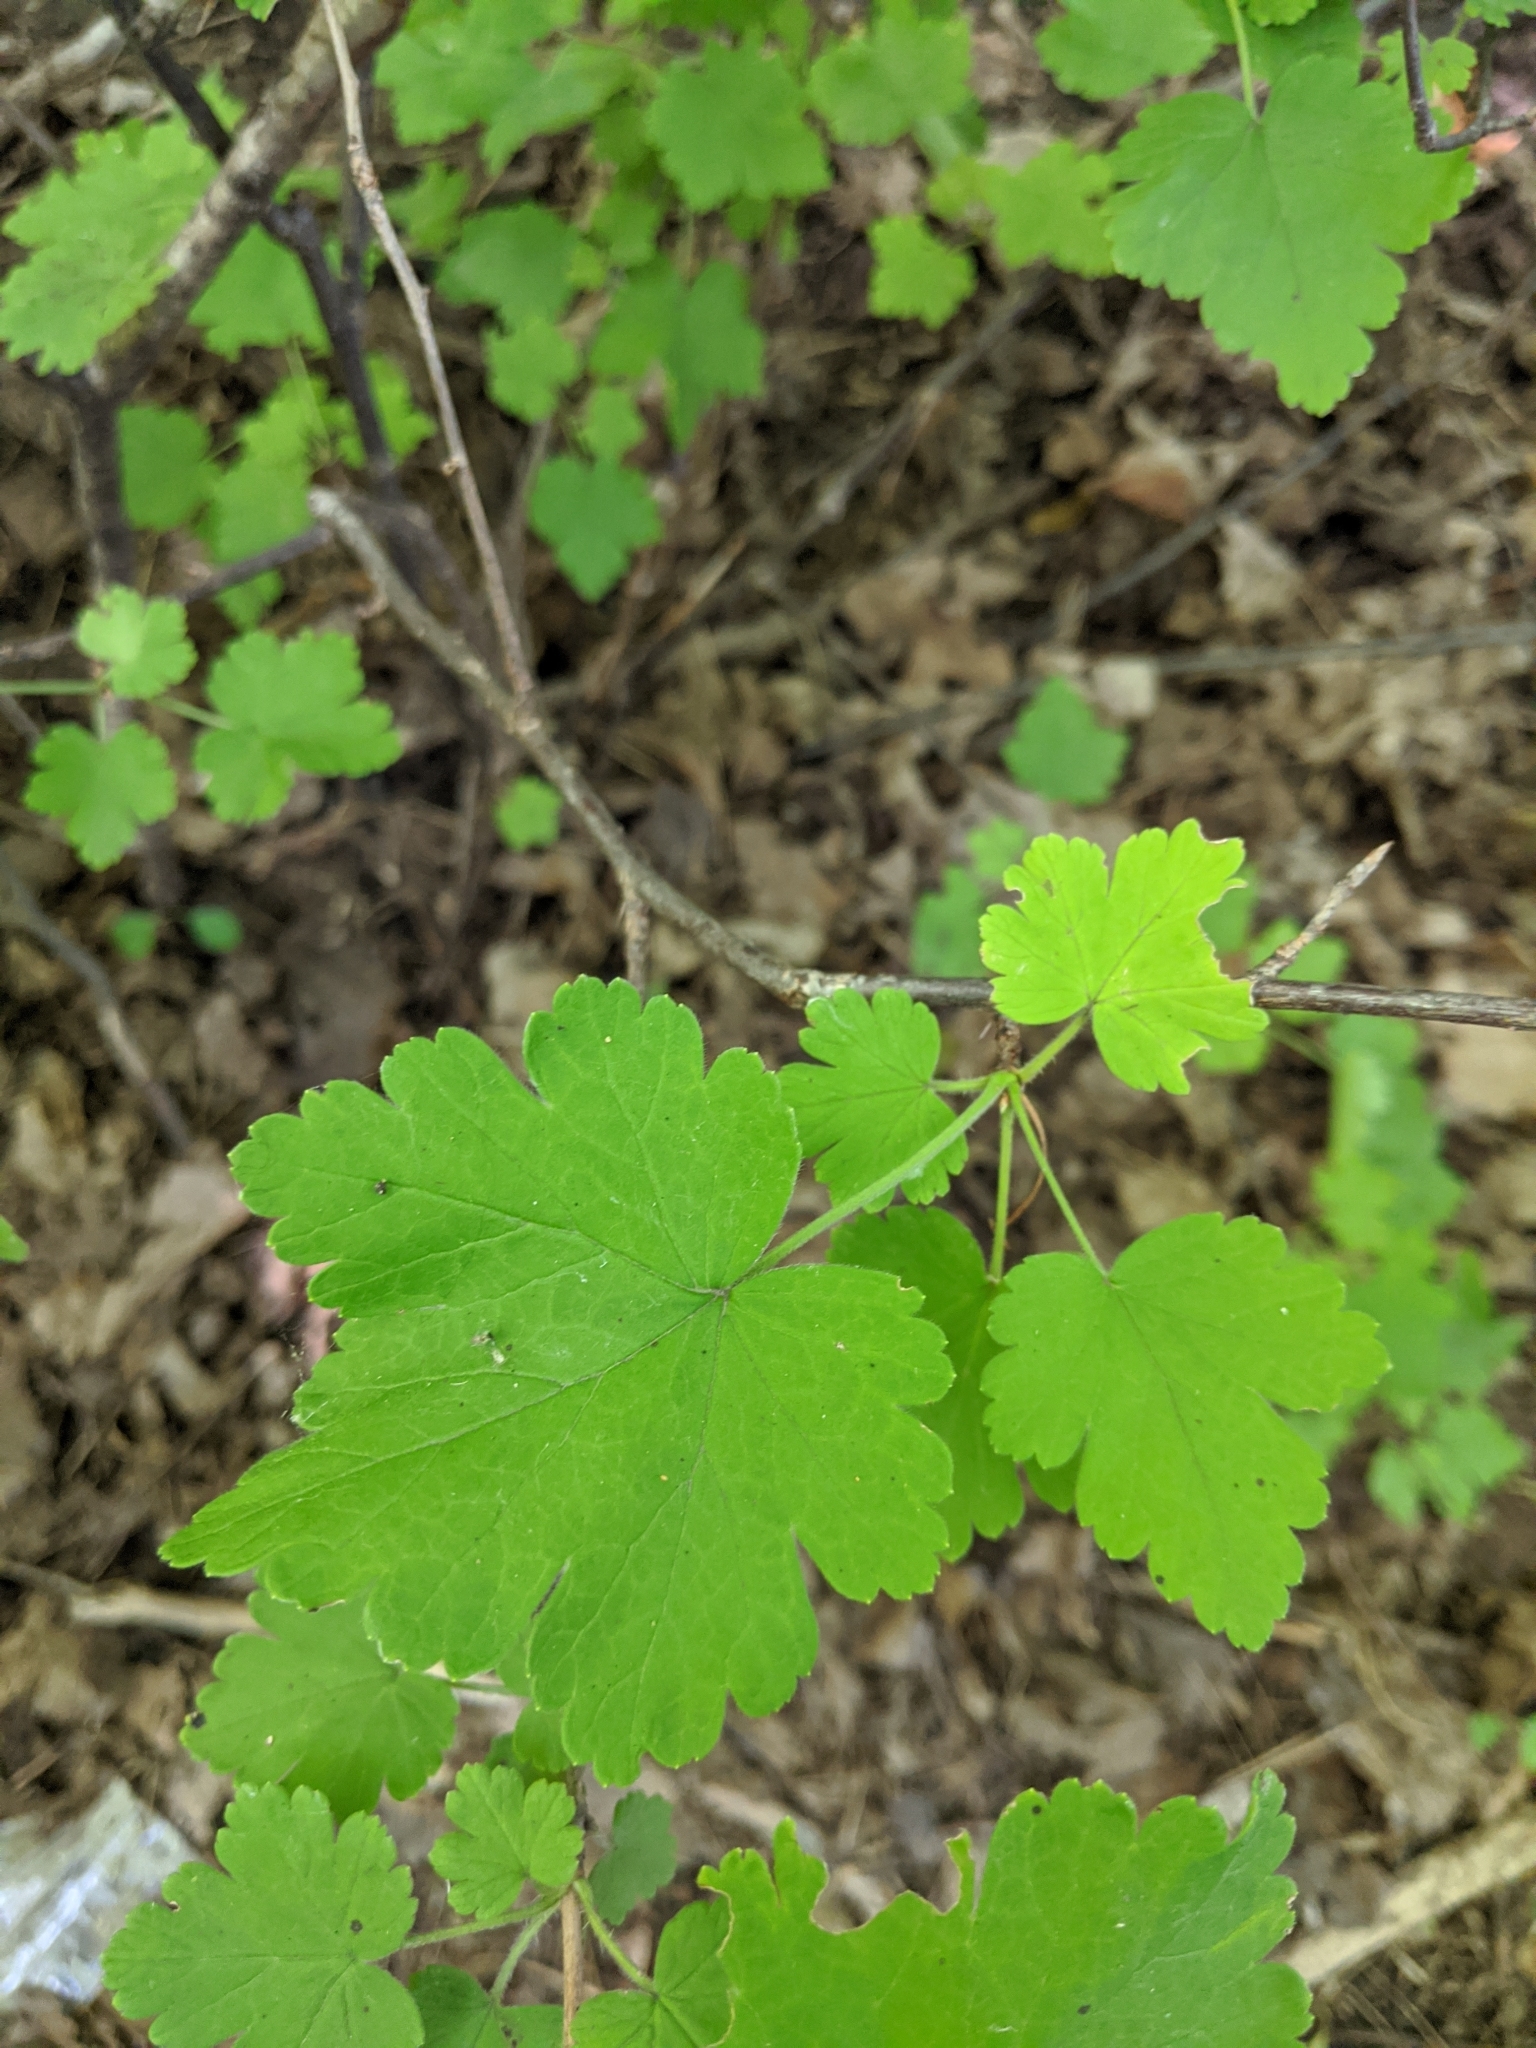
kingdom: Plantae
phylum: Tracheophyta
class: Magnoliopsida
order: Saxifragales
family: Grossulariaceae
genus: Ribes
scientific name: Ribes cynosbati
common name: American gooseberry
